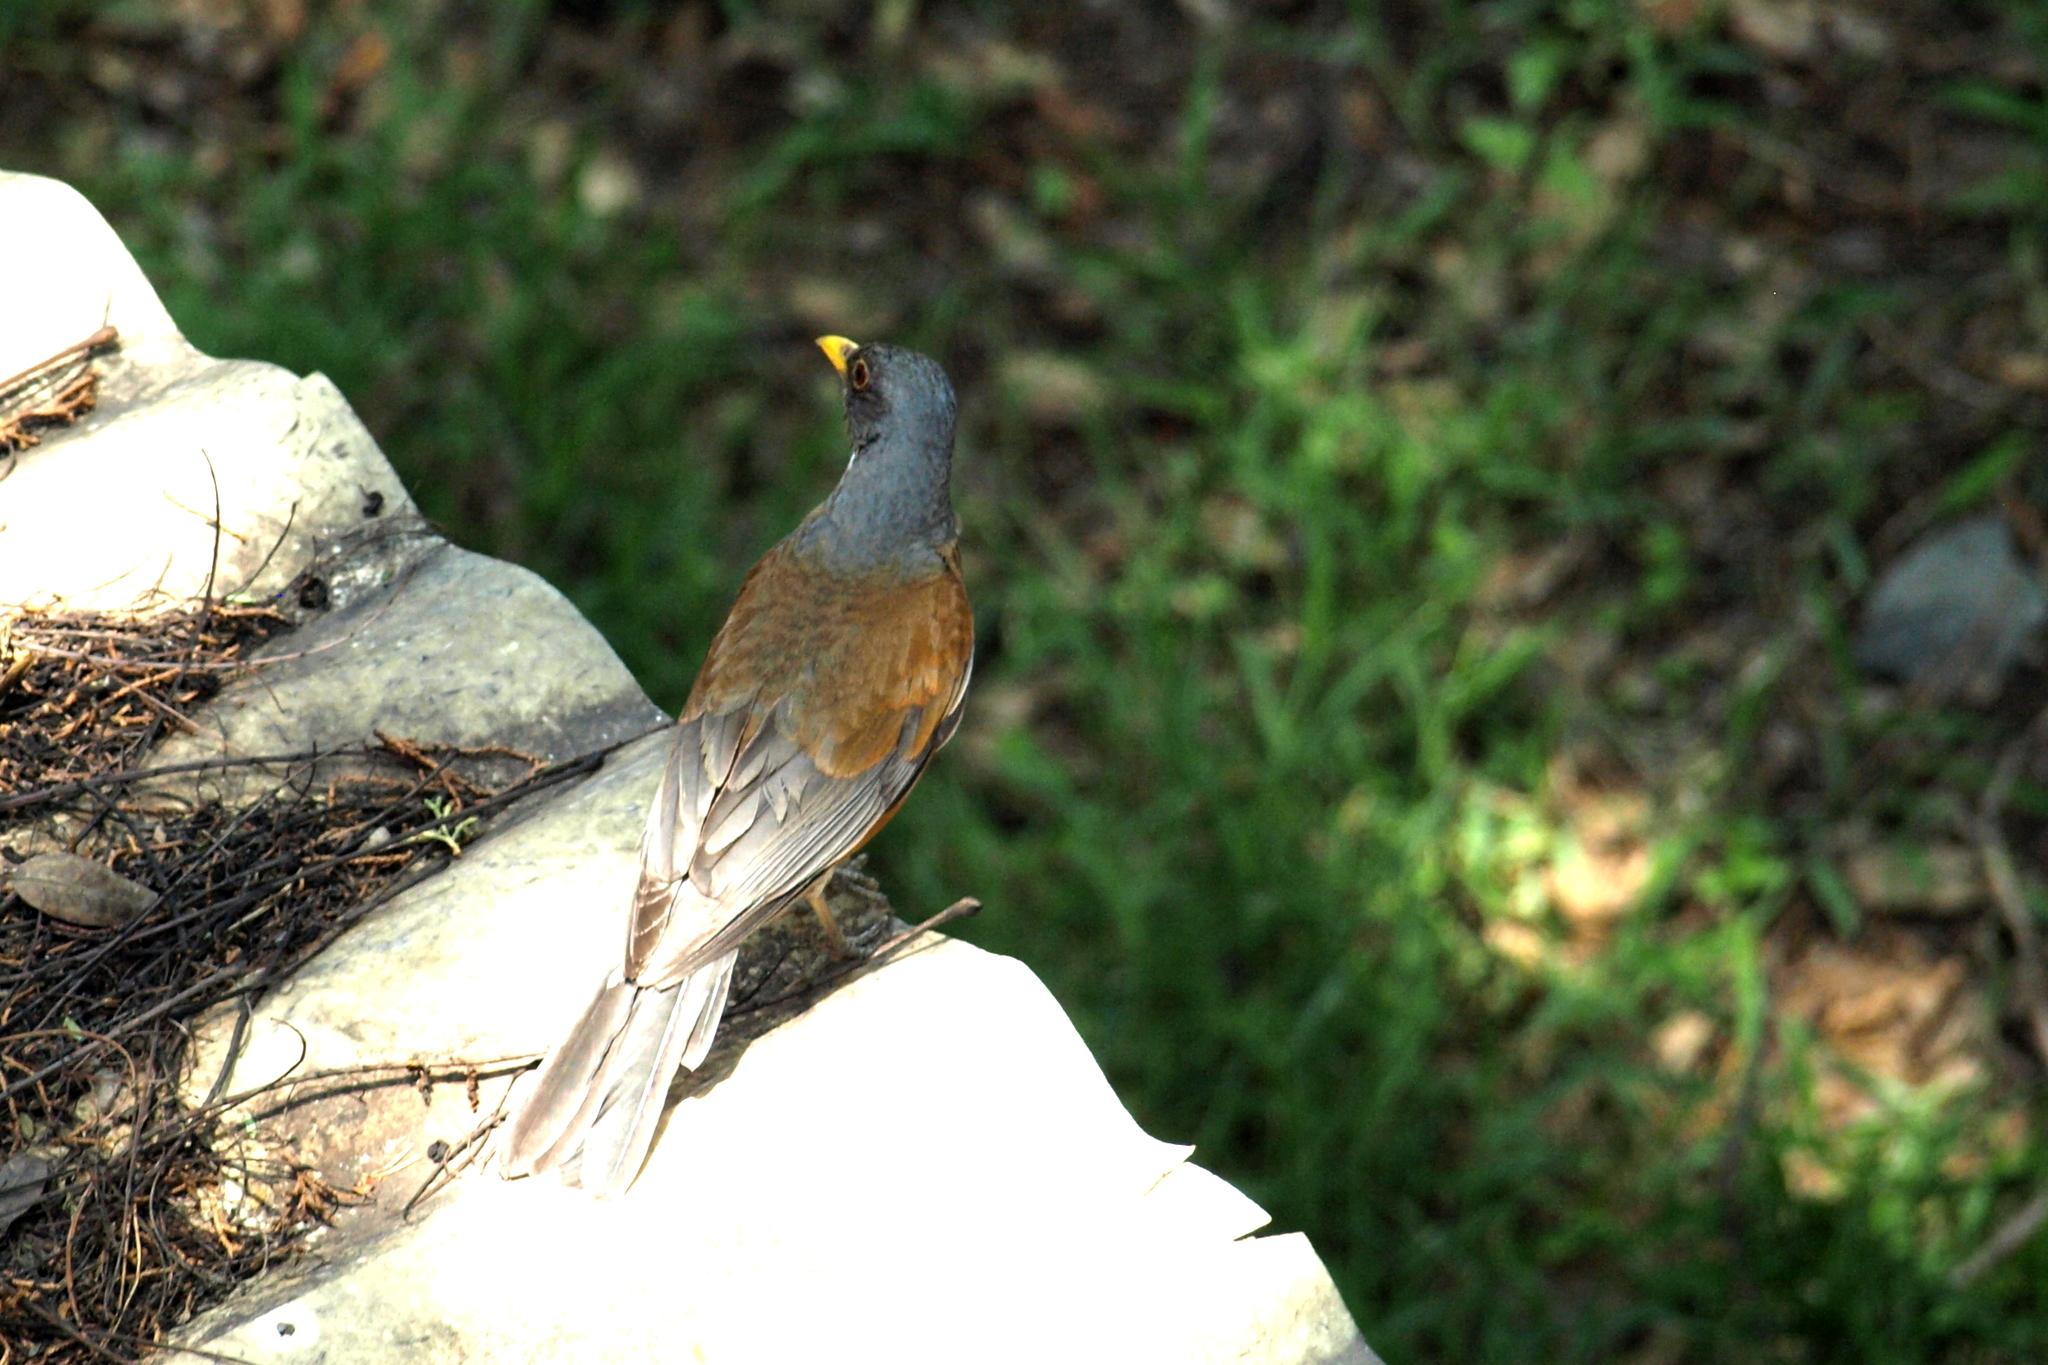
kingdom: Animalia
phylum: Chordata
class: Aves
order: Passeriformes
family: Turdidae
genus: Turdus
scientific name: Turdus rufopalliatus
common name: Rufous-backed robin
